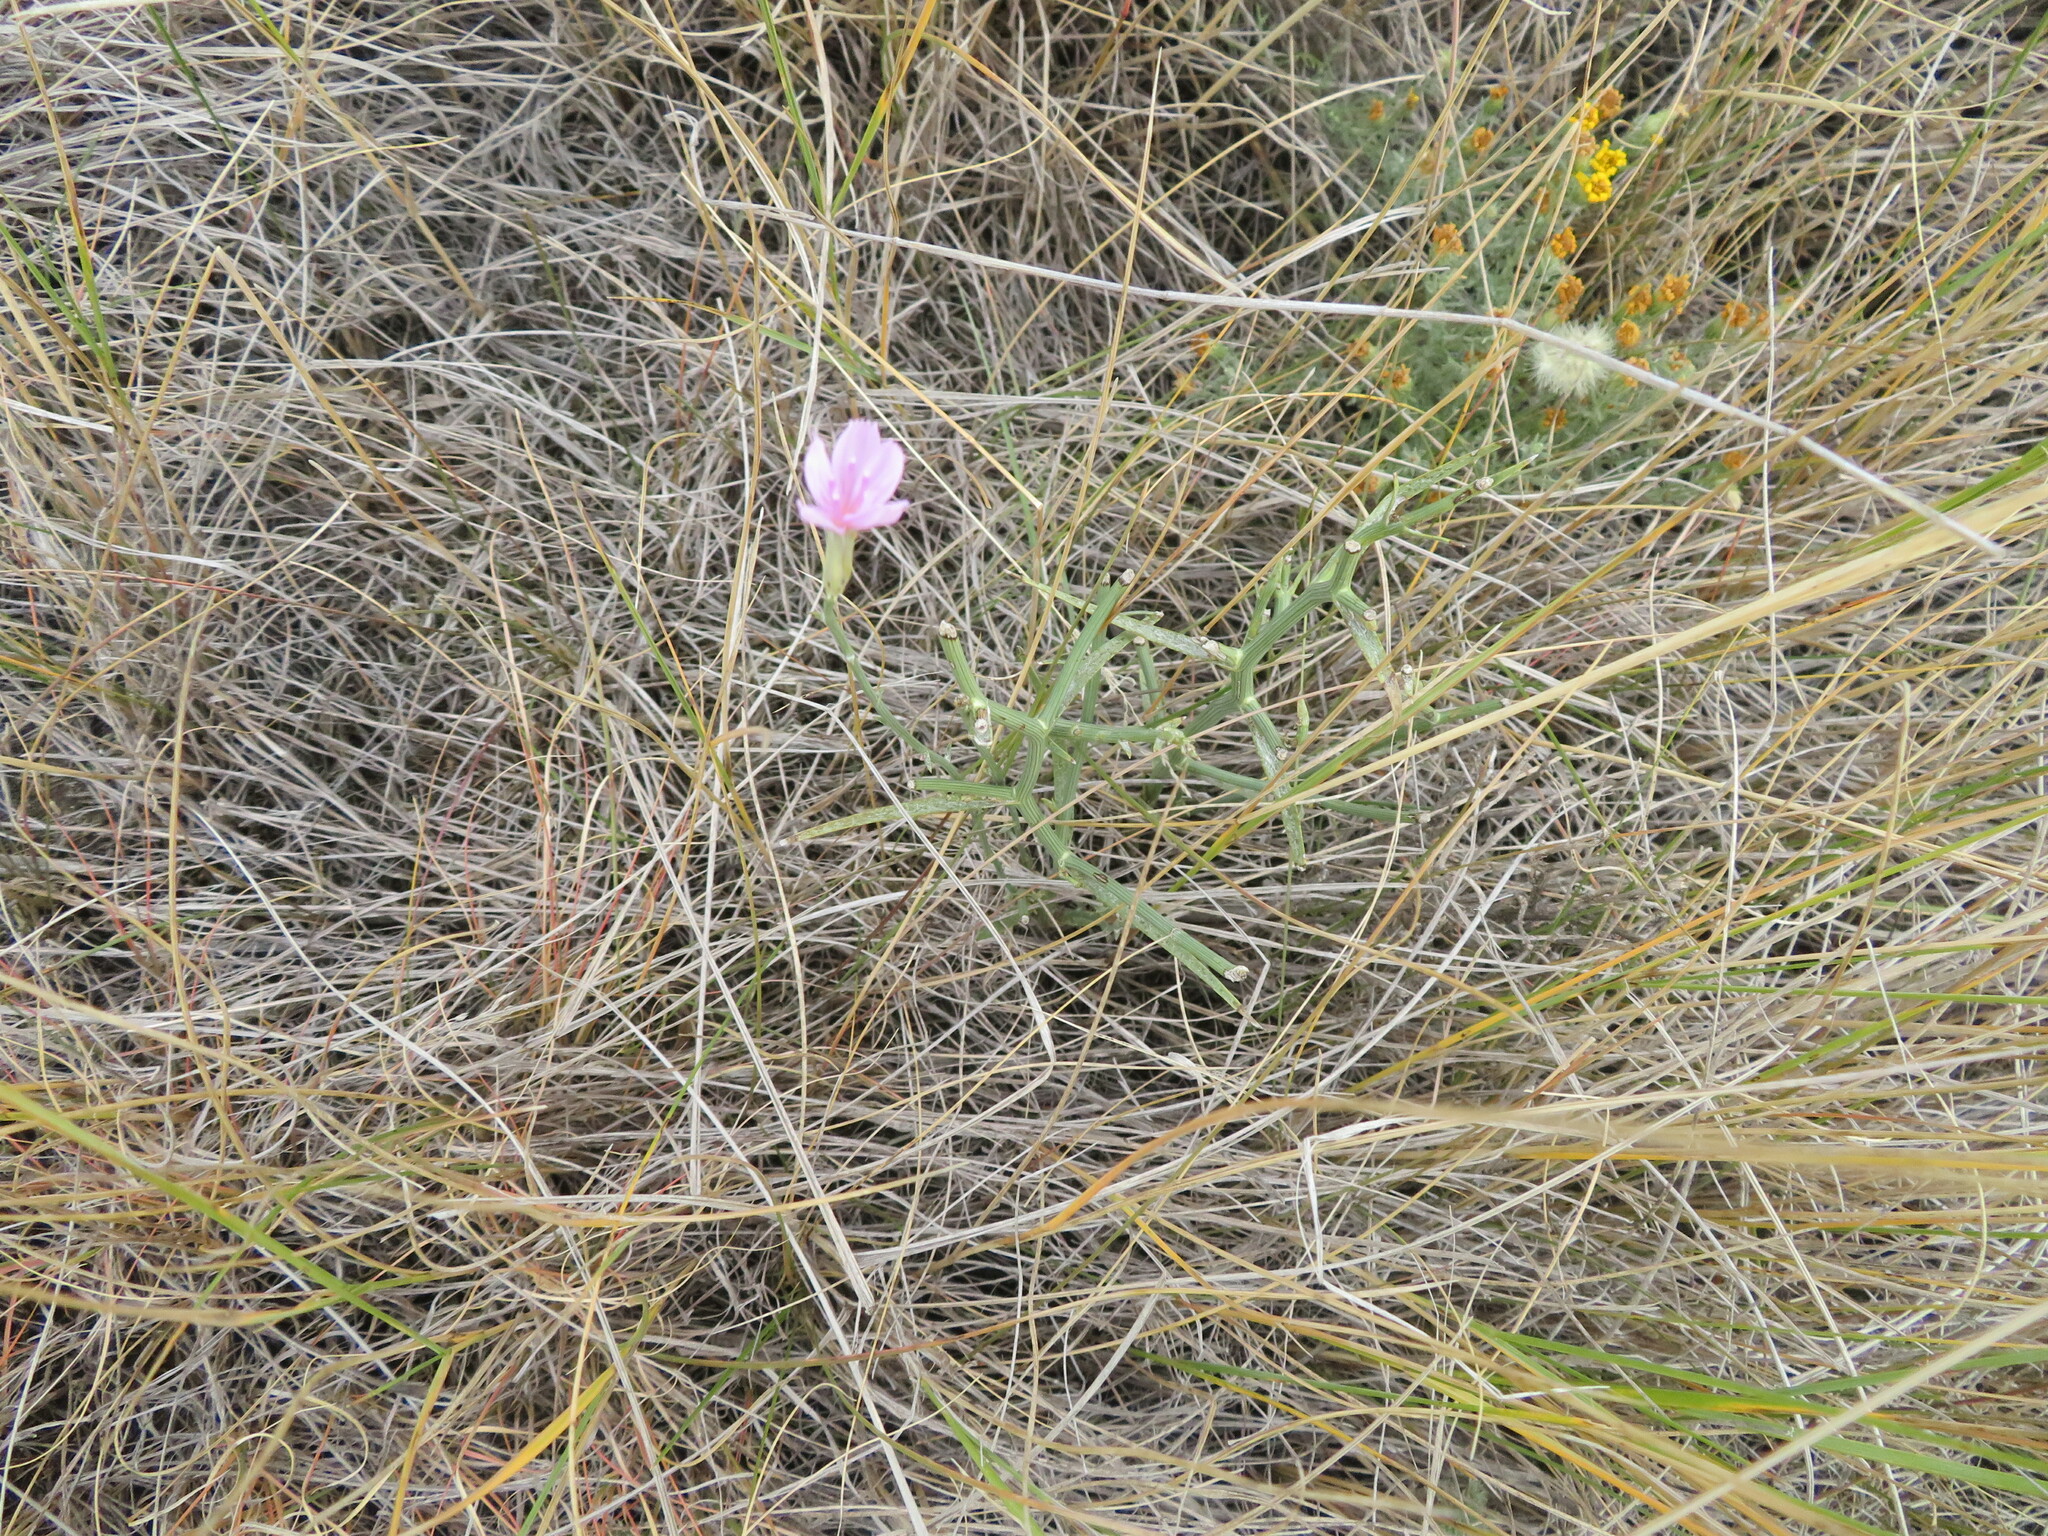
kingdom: Plantae
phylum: Tracheophyta
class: Magnoliopsida
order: Asterales
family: Asteraceae
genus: Lygodesmia
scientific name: Lygodesmia juncea
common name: Common skeletonweed
